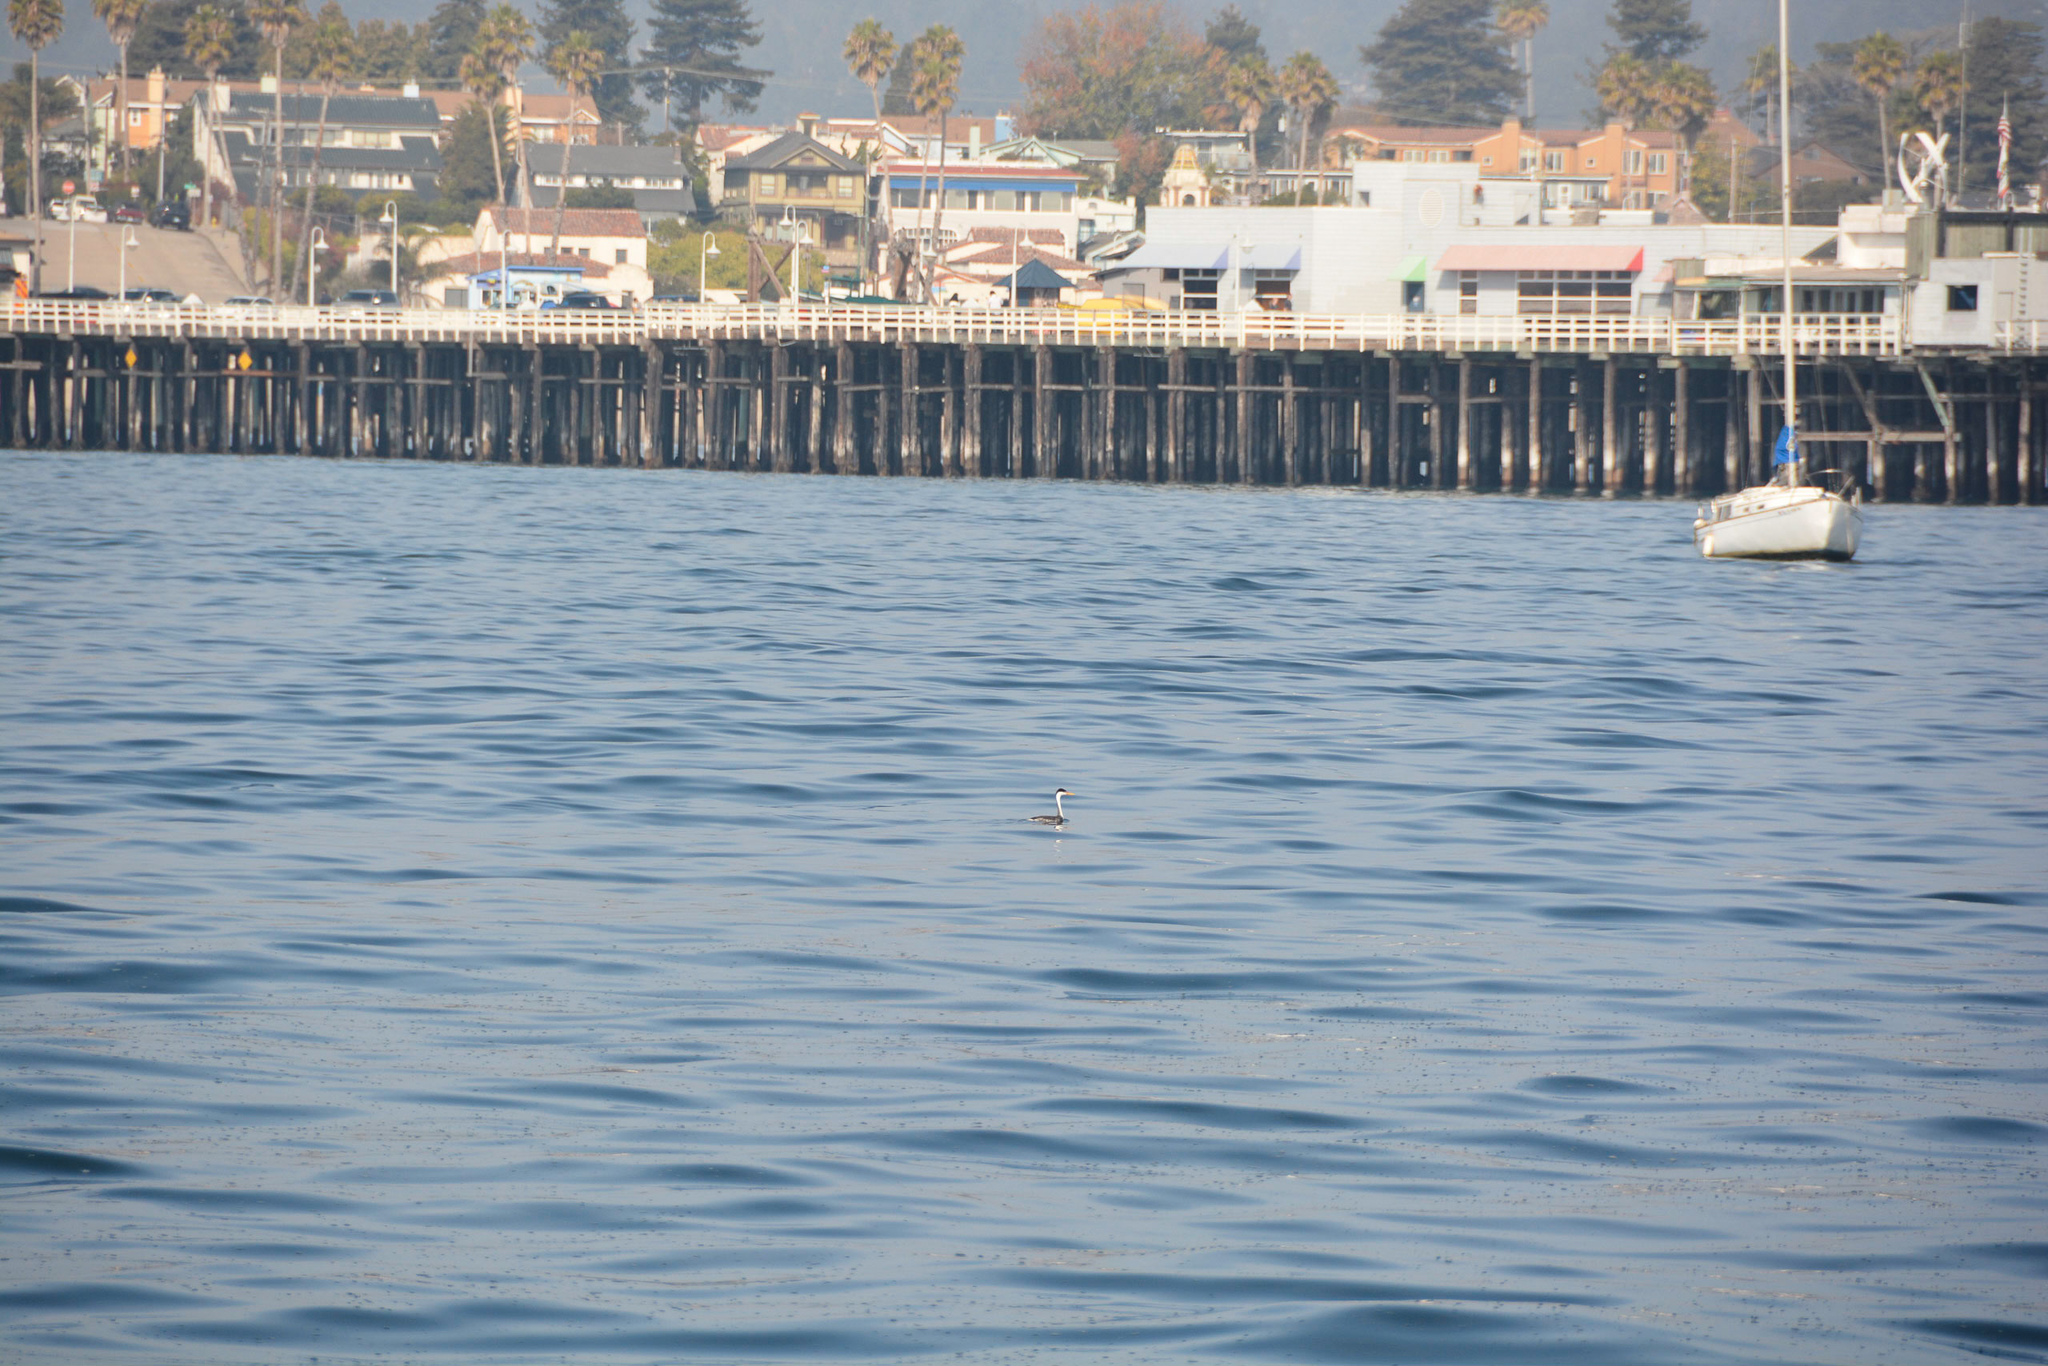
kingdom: Animalia
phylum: Chordata
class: Aves
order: Podicipediformes
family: Podicipedidae
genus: Aechmophorus
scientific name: Aechmophorus clarkii
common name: Clark's grebe
